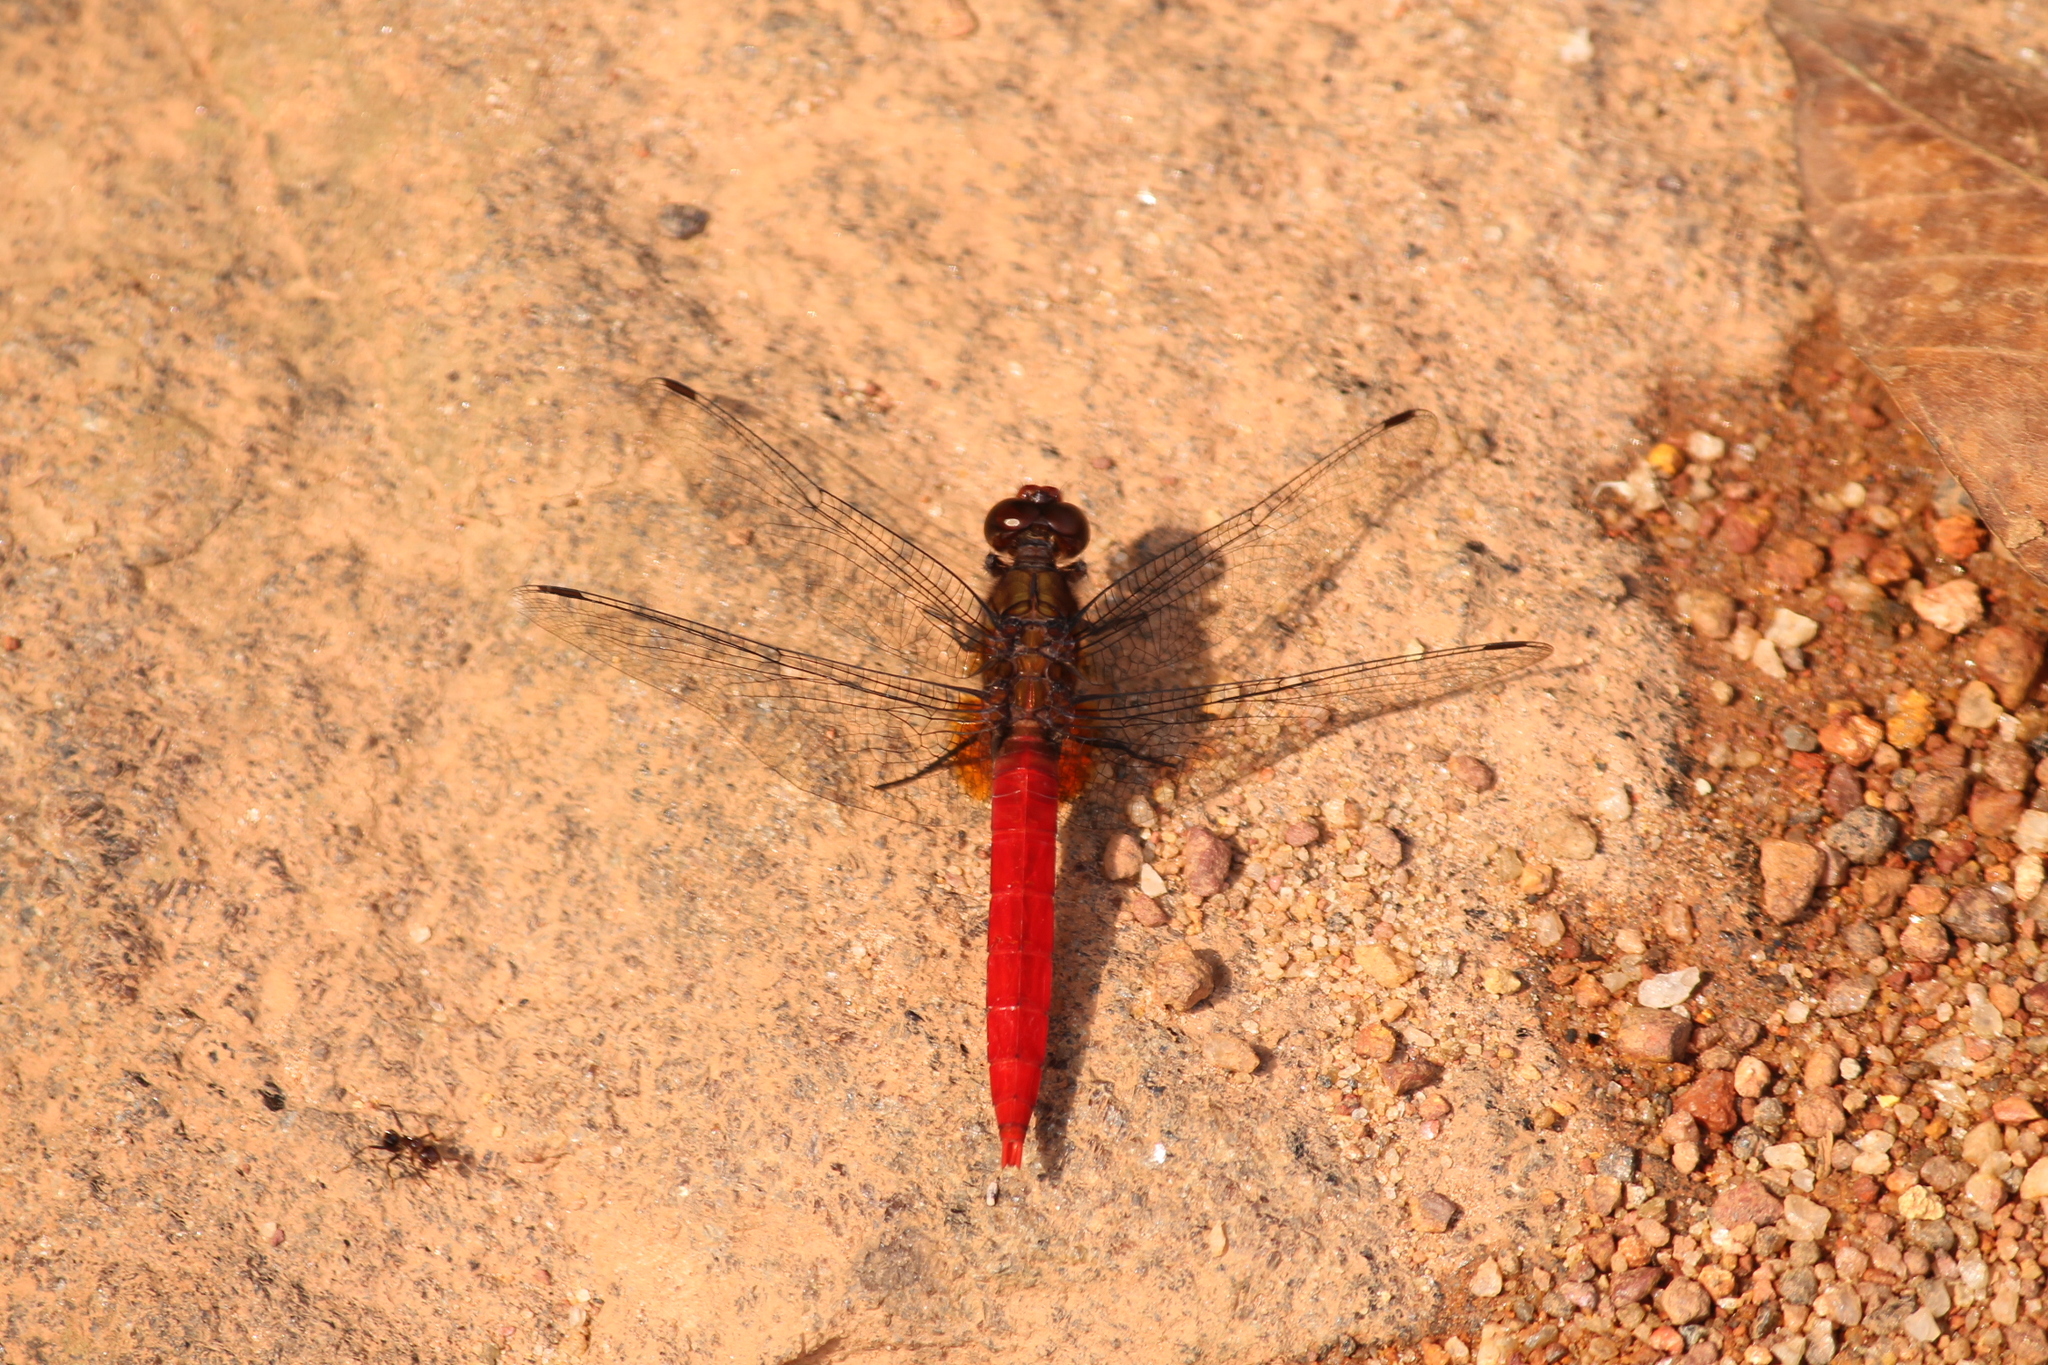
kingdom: Animalia
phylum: Arthropoda
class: Insecta
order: Odonata
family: Libellulidae
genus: Orthetrum
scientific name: Orthetrum chrysis
